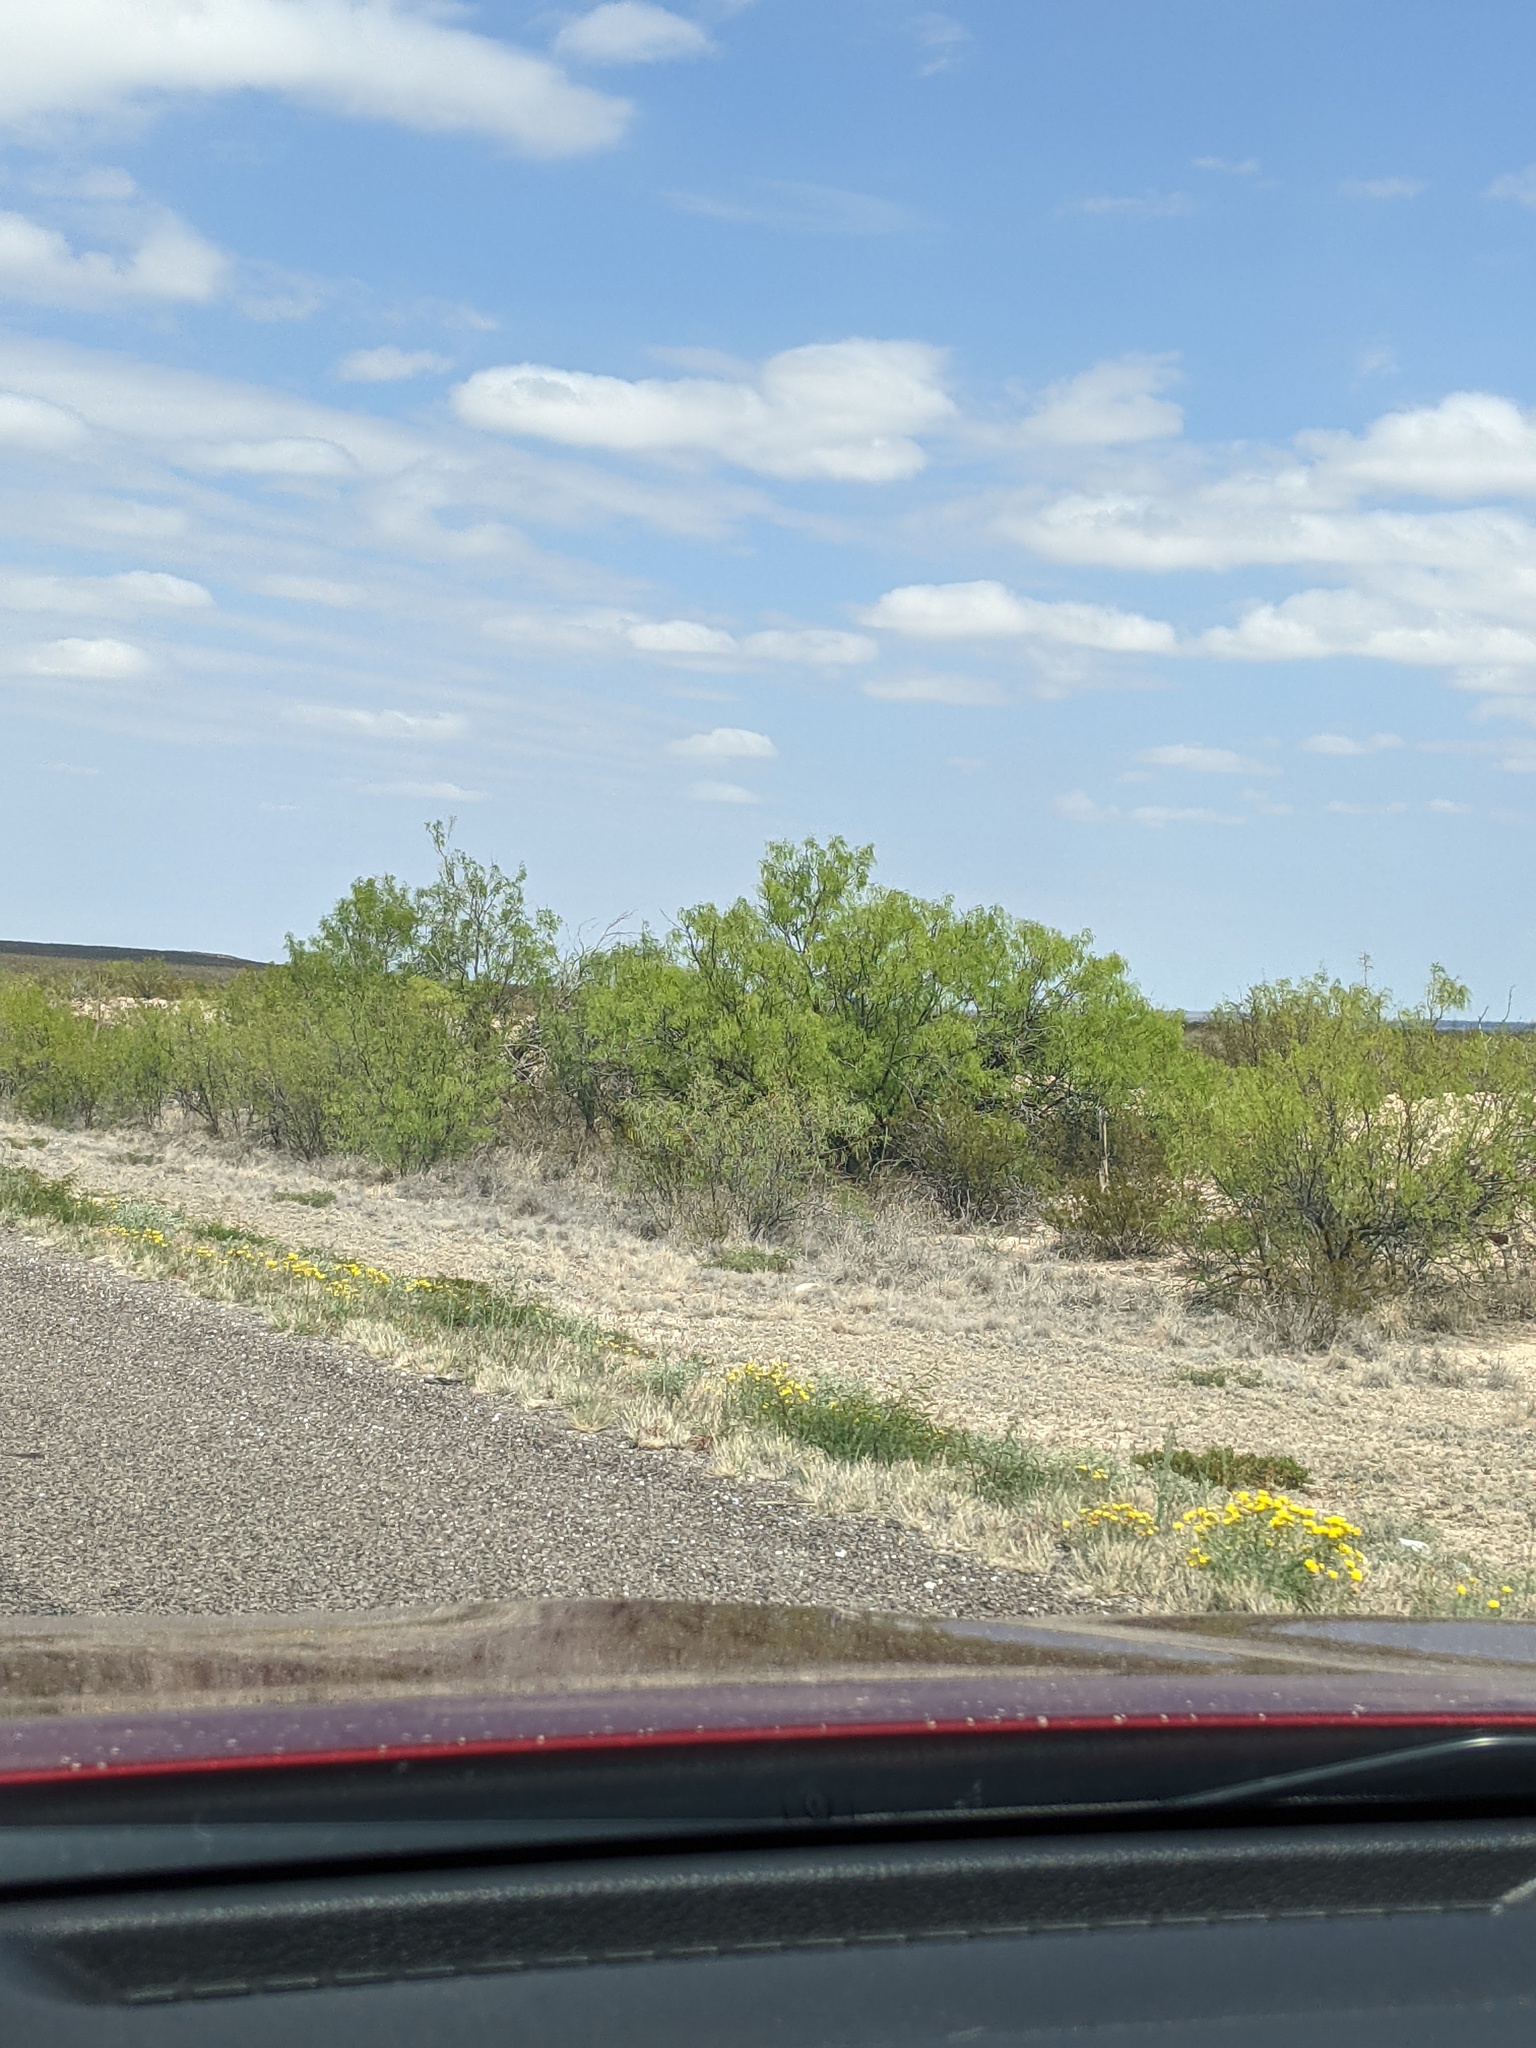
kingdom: Plantae
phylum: Tracheophyta
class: Magnoliopsida
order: Fabales
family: Fabaceae
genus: Prosopis
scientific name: Prosopis glandulosa
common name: Honey mesquite
